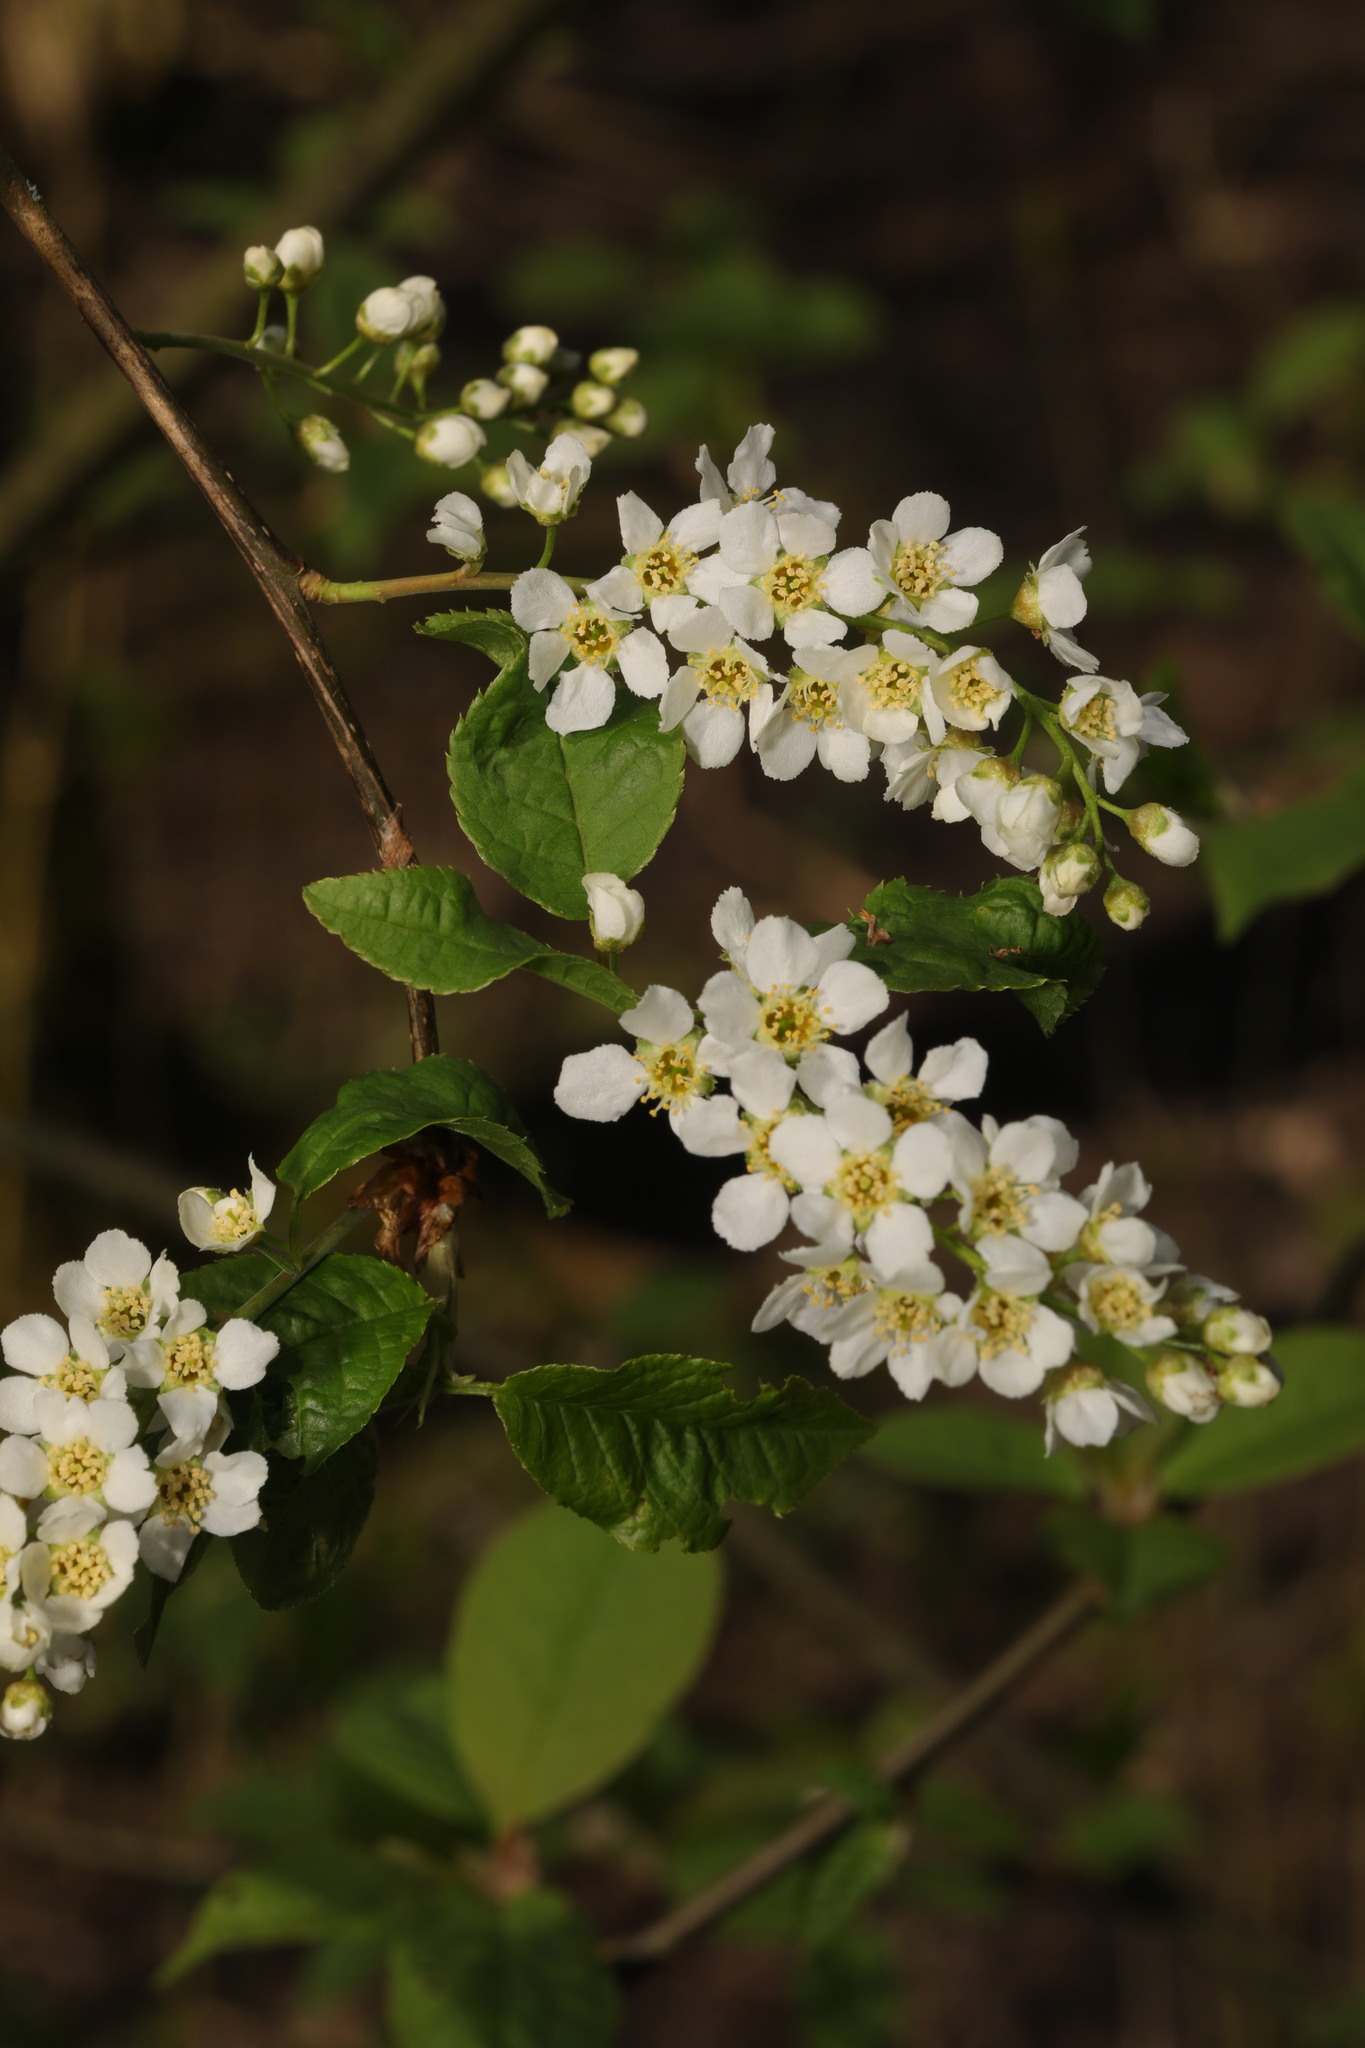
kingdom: Plantae
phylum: Tracheophyta
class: Magnoliopsida
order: Rosales
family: Rosaceae
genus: Prunus
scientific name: Prunus padus
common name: Bird cherry
